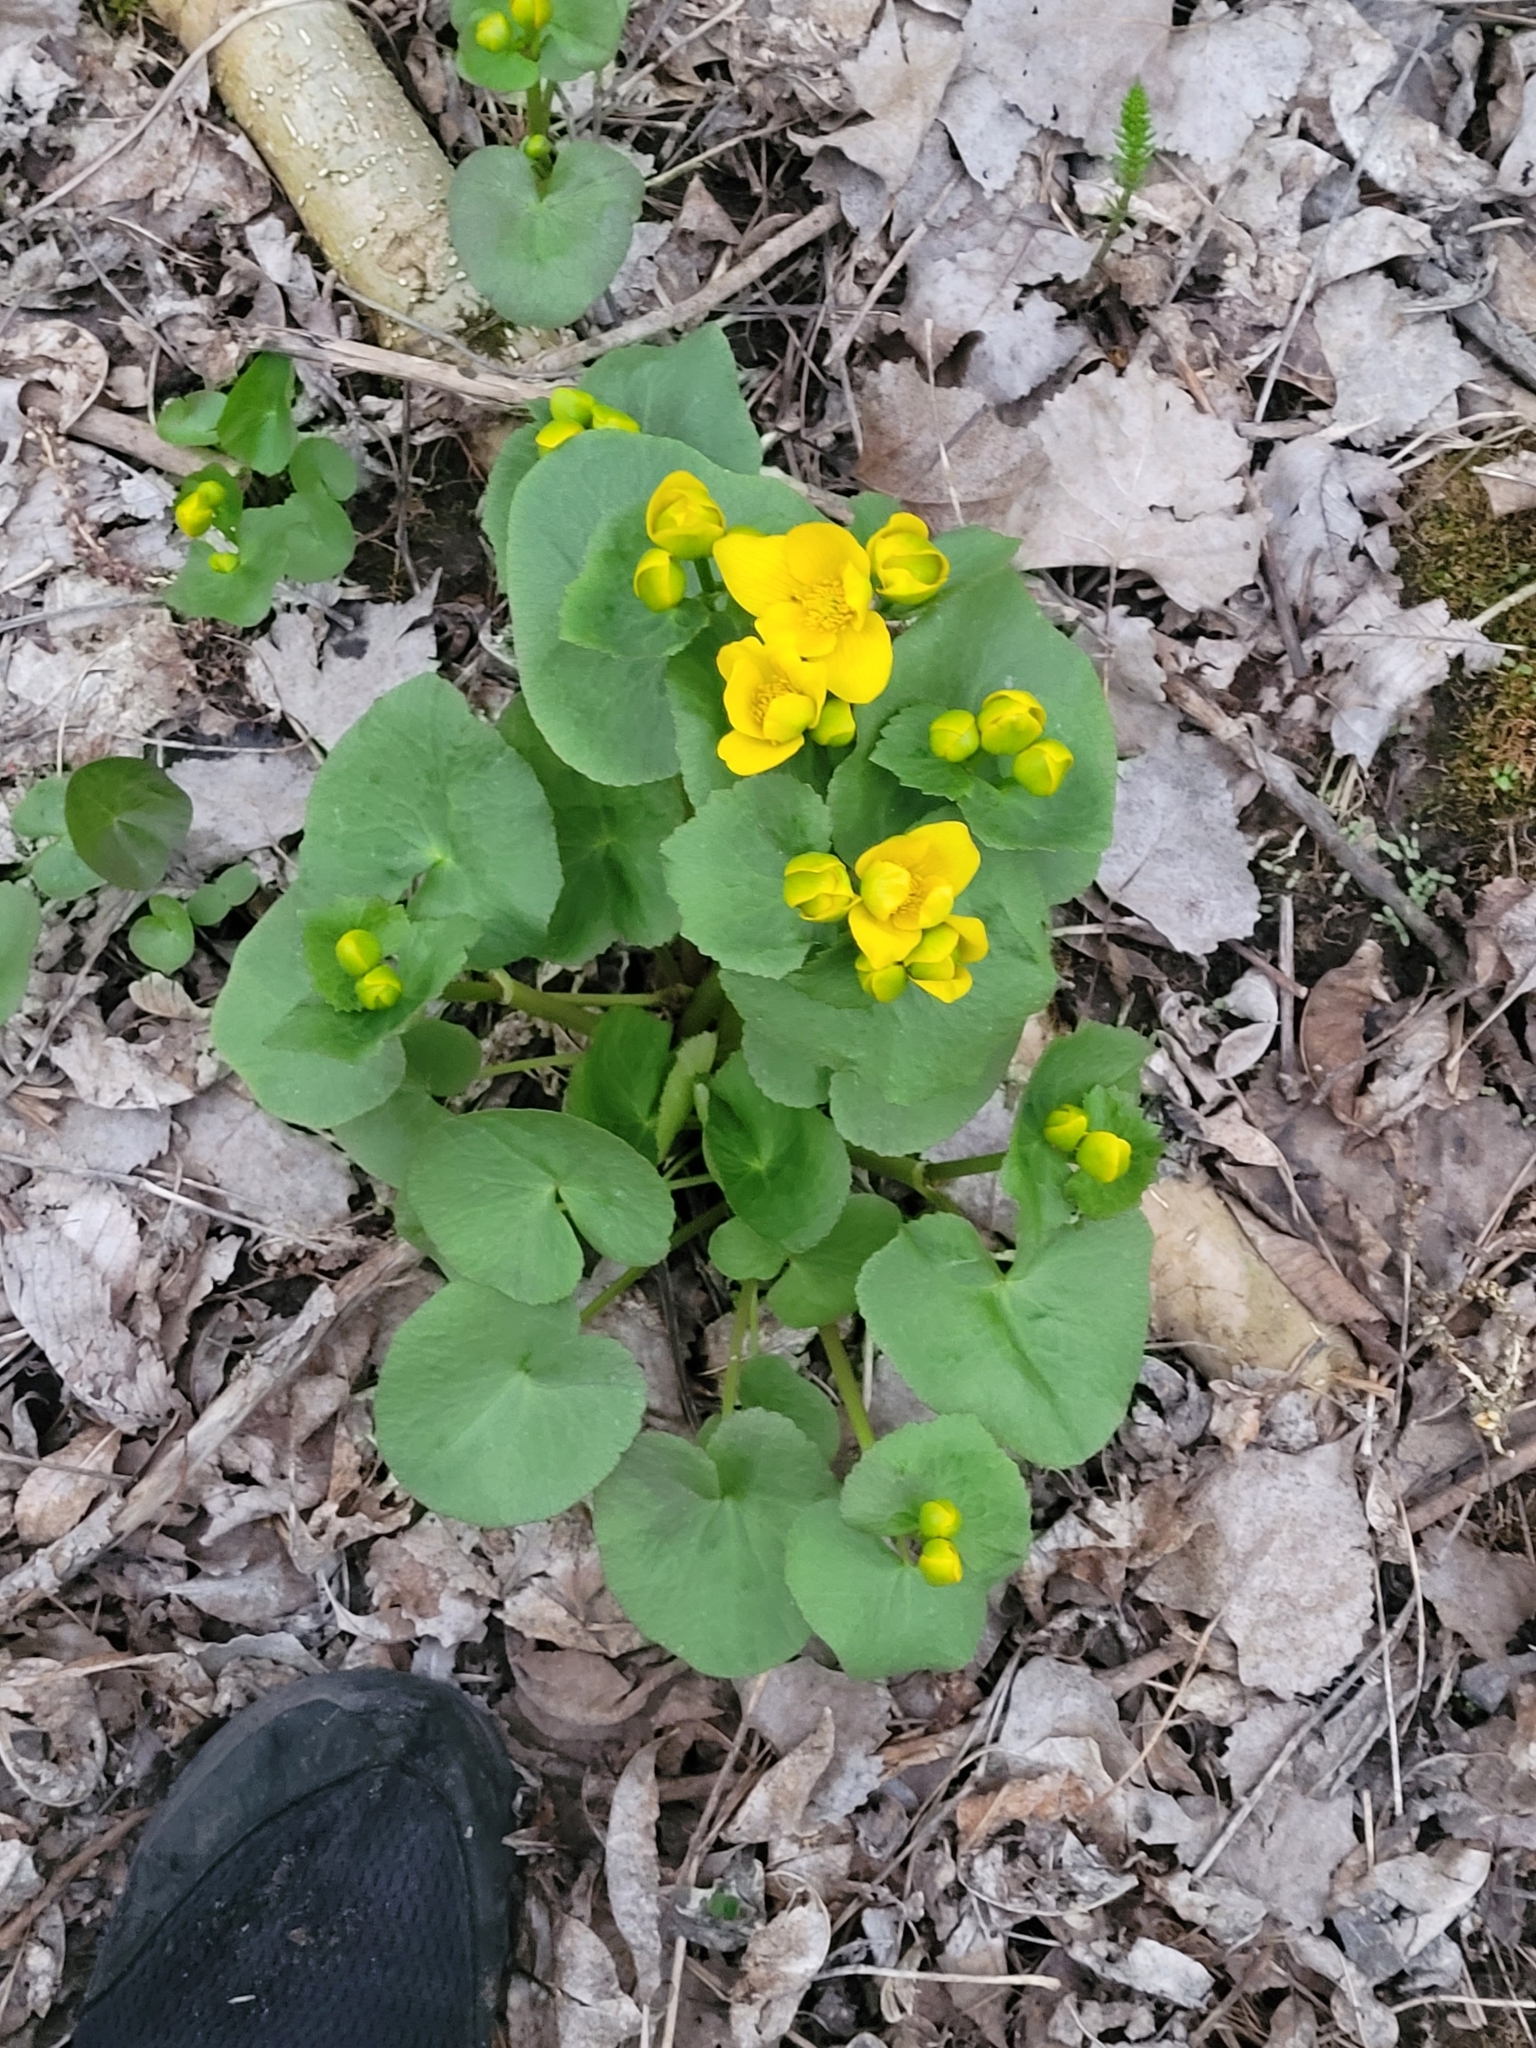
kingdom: Plantae
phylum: Tracheophyta
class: Magnoliopsida
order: Ranunculales
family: Ranunculaceae
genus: Caltha
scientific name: Caltha palustris
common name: Marsh marigold
